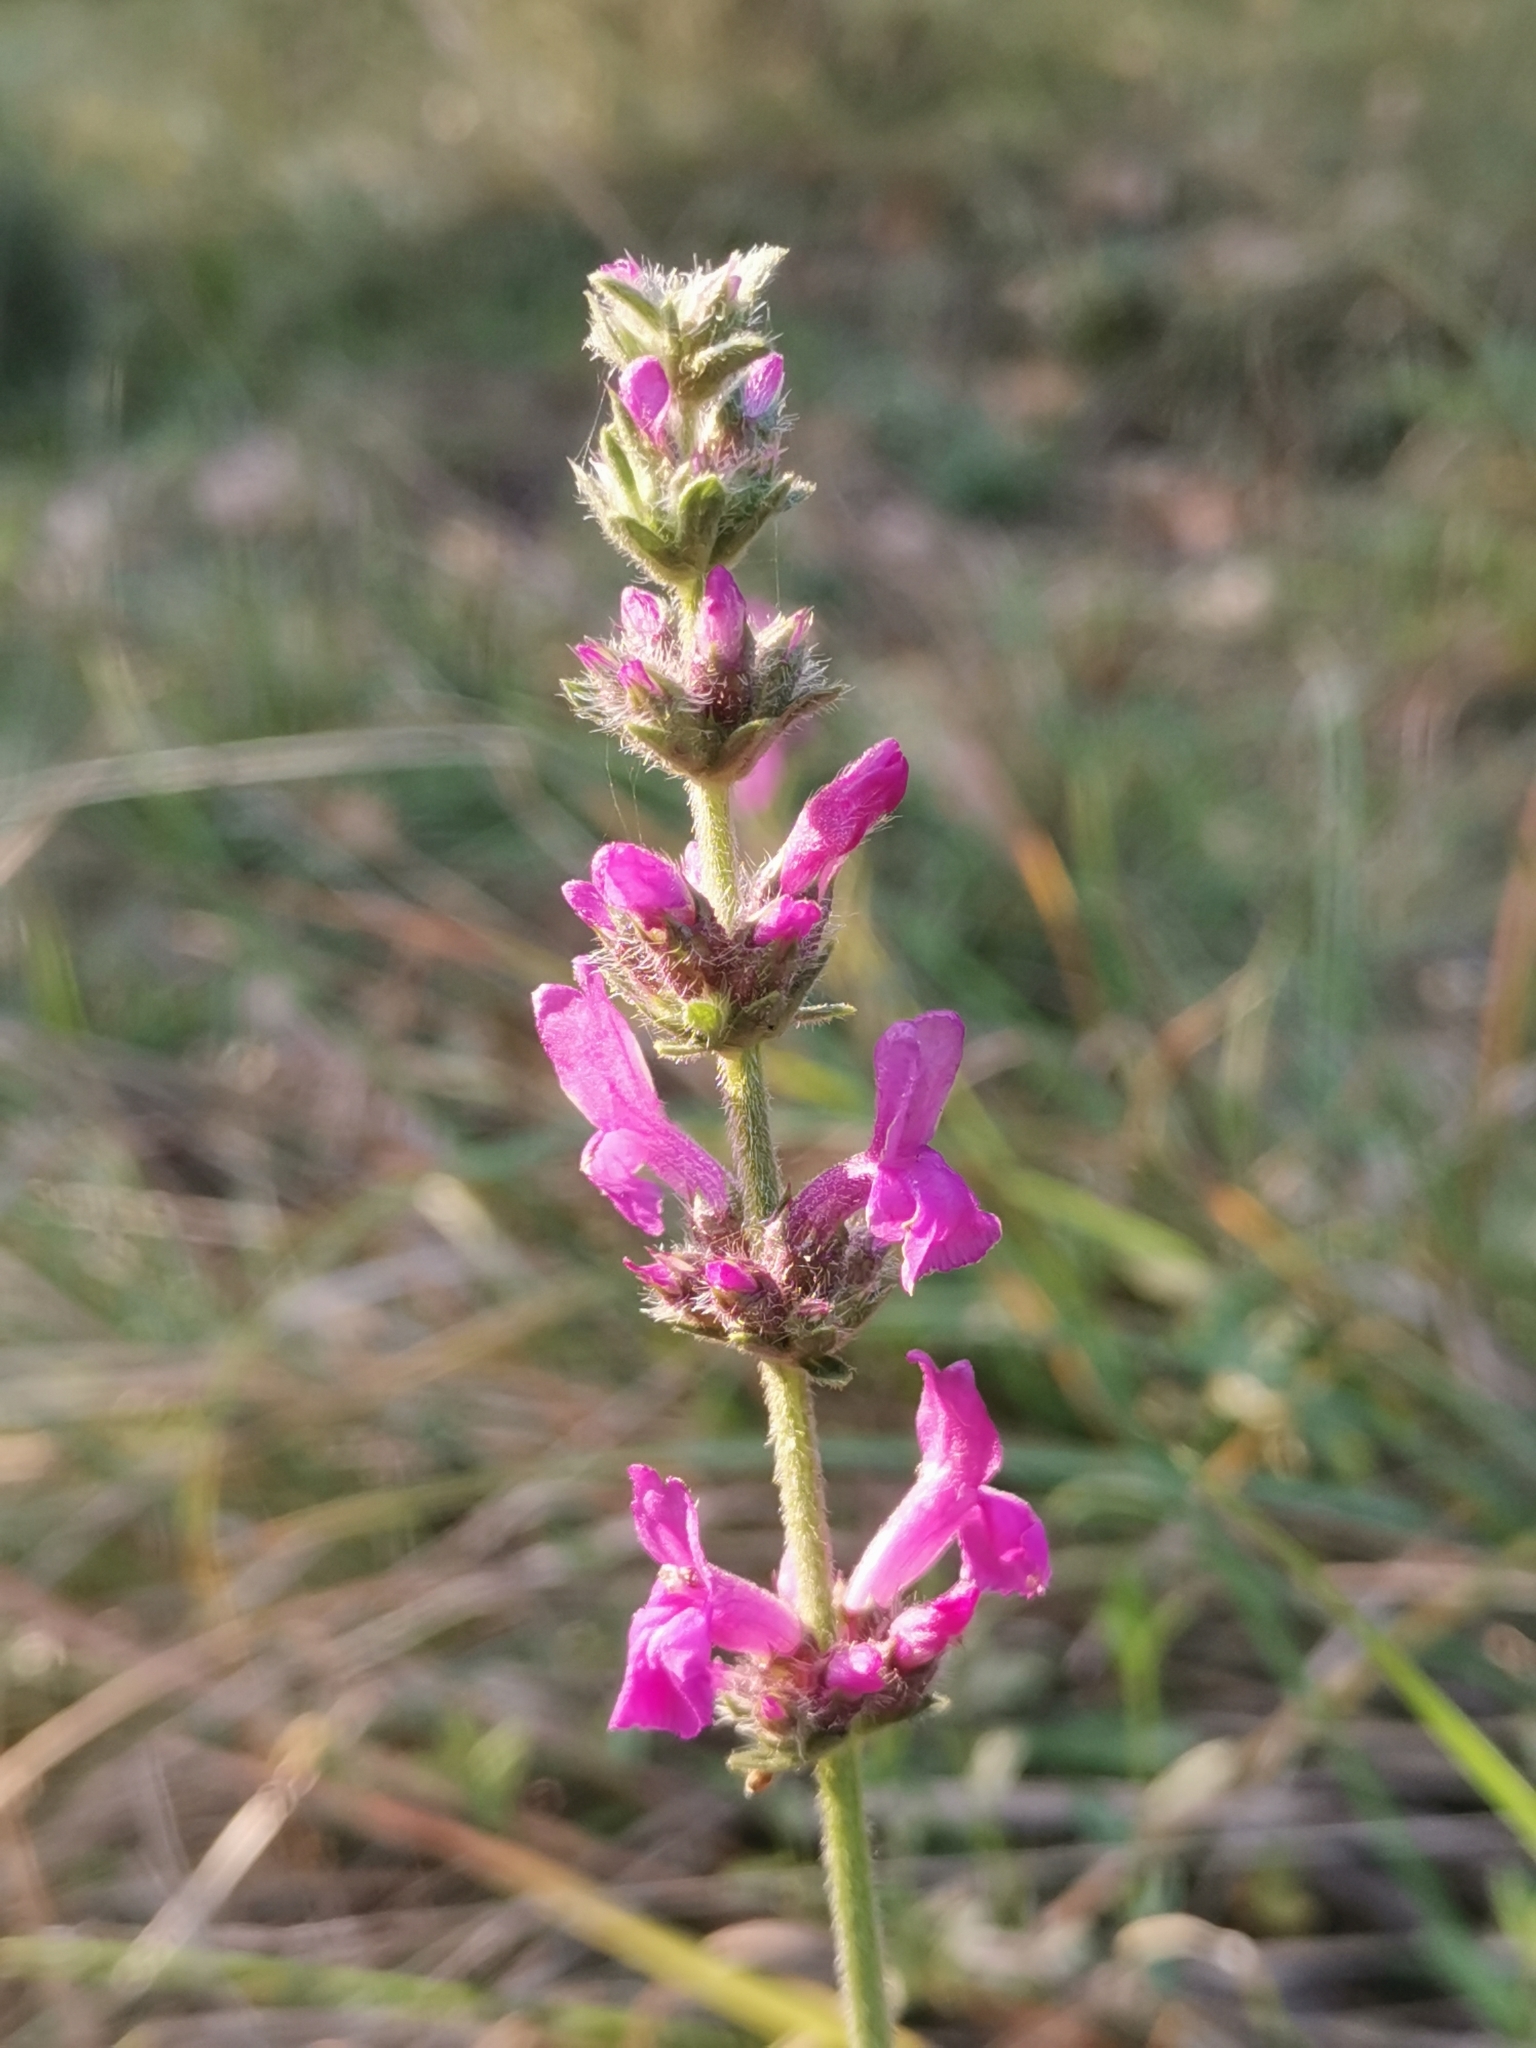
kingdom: Plantae
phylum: Tracheophyta
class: Magnoliopsida
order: Lamiales
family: Lamiaceae
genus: Betonica
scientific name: Betonica officinalis
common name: Bishop's-wort
